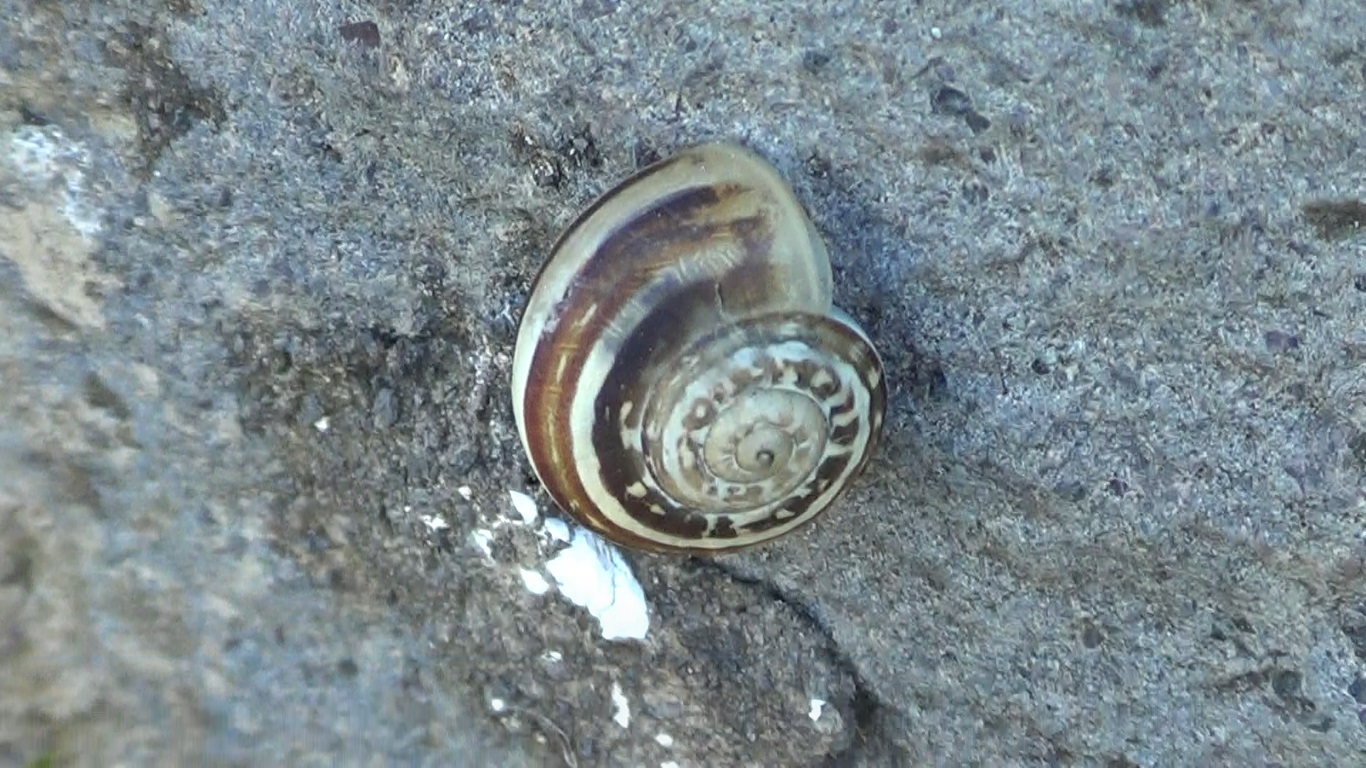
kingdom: Animalia
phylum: Mollusca
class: Gastropoda
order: Stylommatophora
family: Helicidae
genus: Eobania
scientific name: Eobania vermiculata
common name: Chocolateband snail
